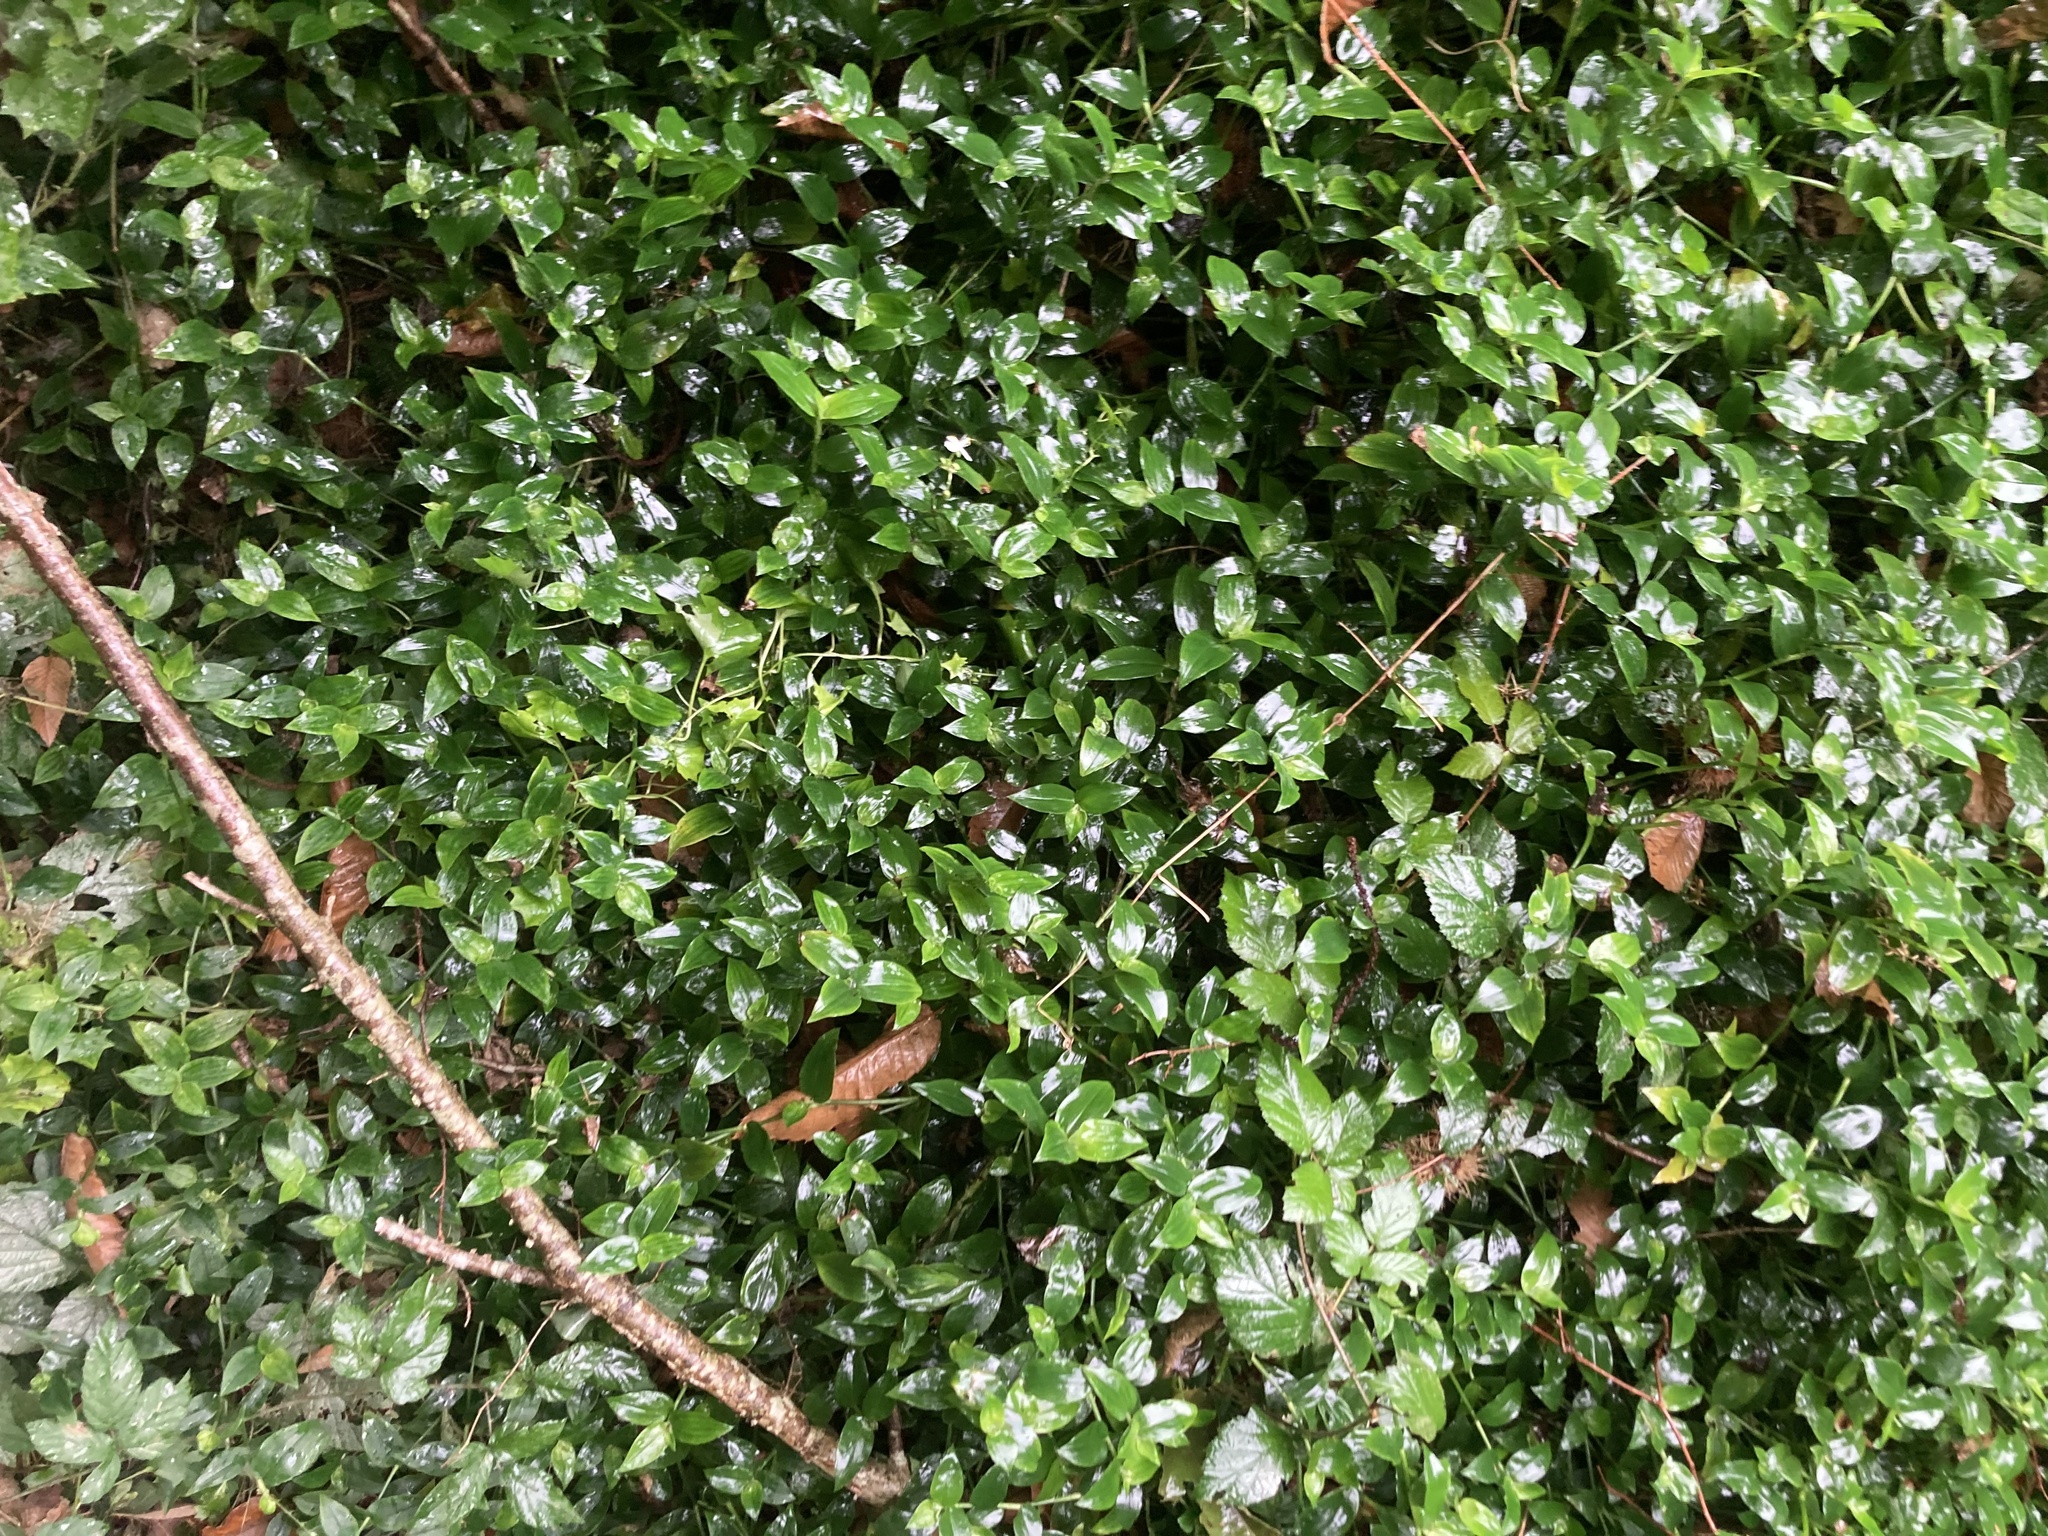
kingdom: Plantae
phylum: Tracheophyta
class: Liliopsida
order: Commelinales
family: Commelinaceae
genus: Tradescantia
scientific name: Tradescantia fluminensis
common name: Wandering-jew
